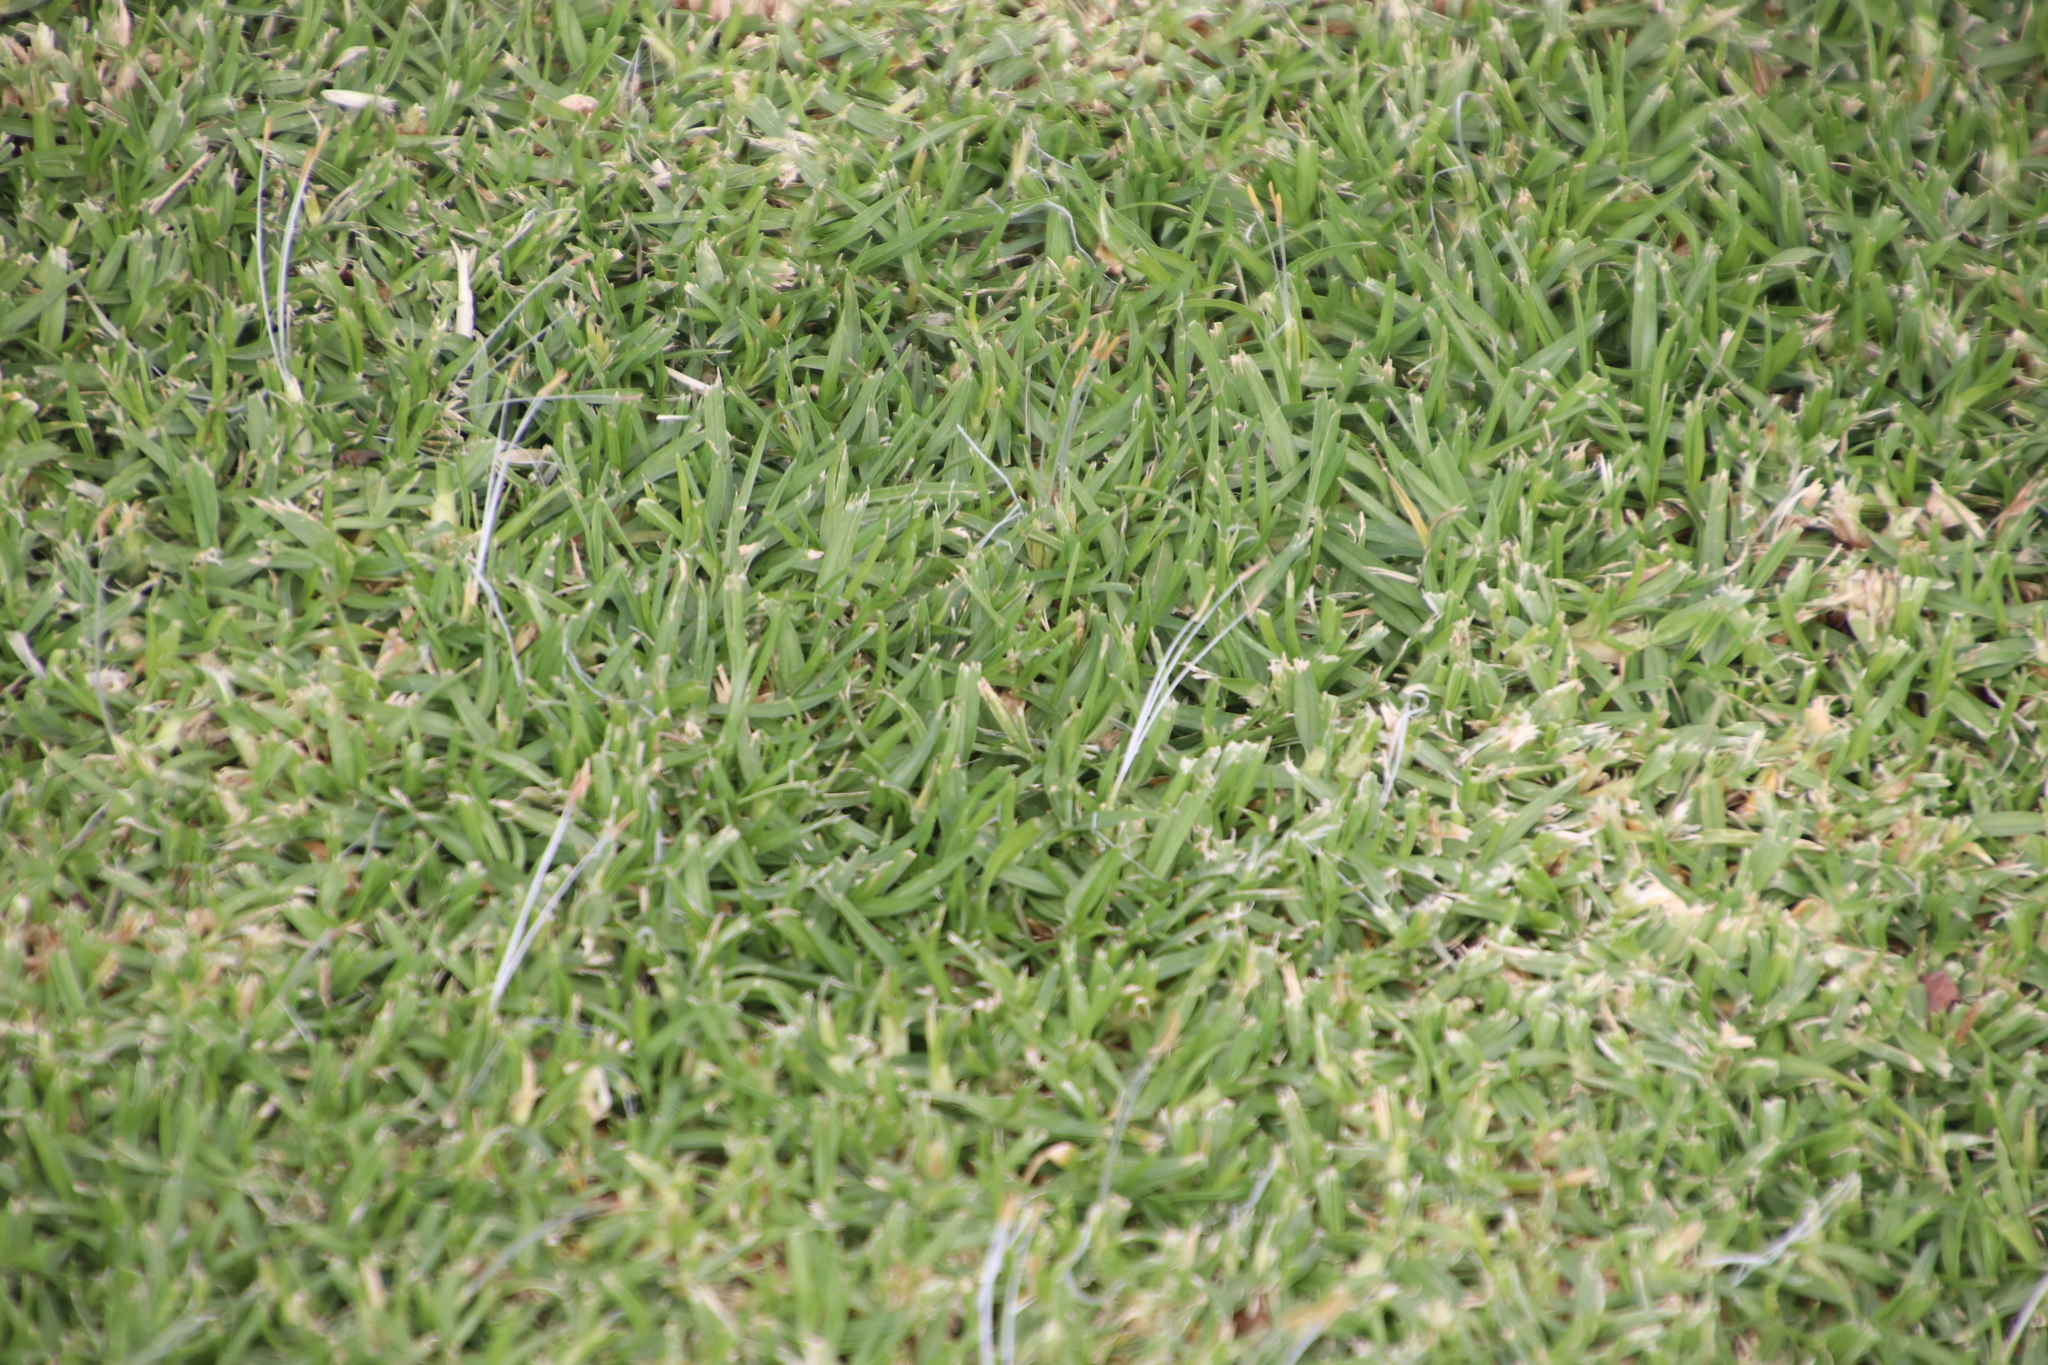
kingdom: Plantae
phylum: Tracheophyta
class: Liliopsida
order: Poales
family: Poaceae
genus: Cenchrus
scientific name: Cenchrus clandestinus
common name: Kikuyugrass
